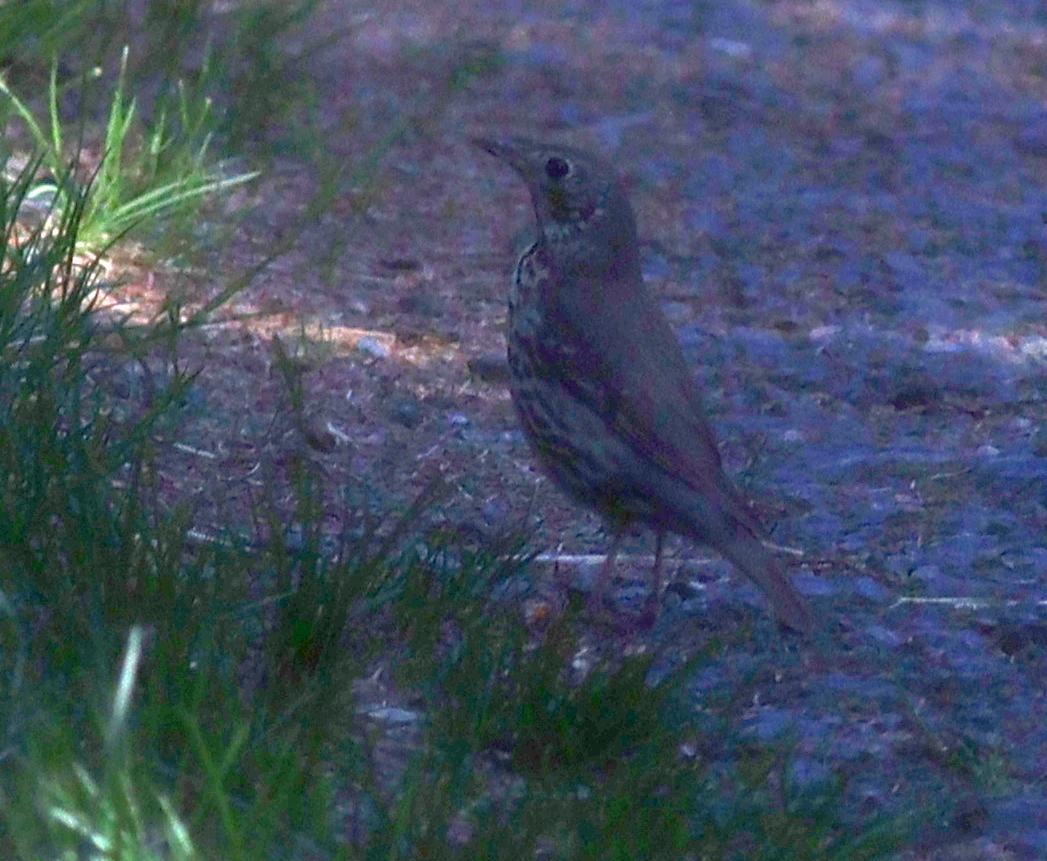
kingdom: Animalia
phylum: Chordata
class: Aves
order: Passeriformes
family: Turdidae
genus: Turdus
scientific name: Turdus philomelos
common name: Song thrush
